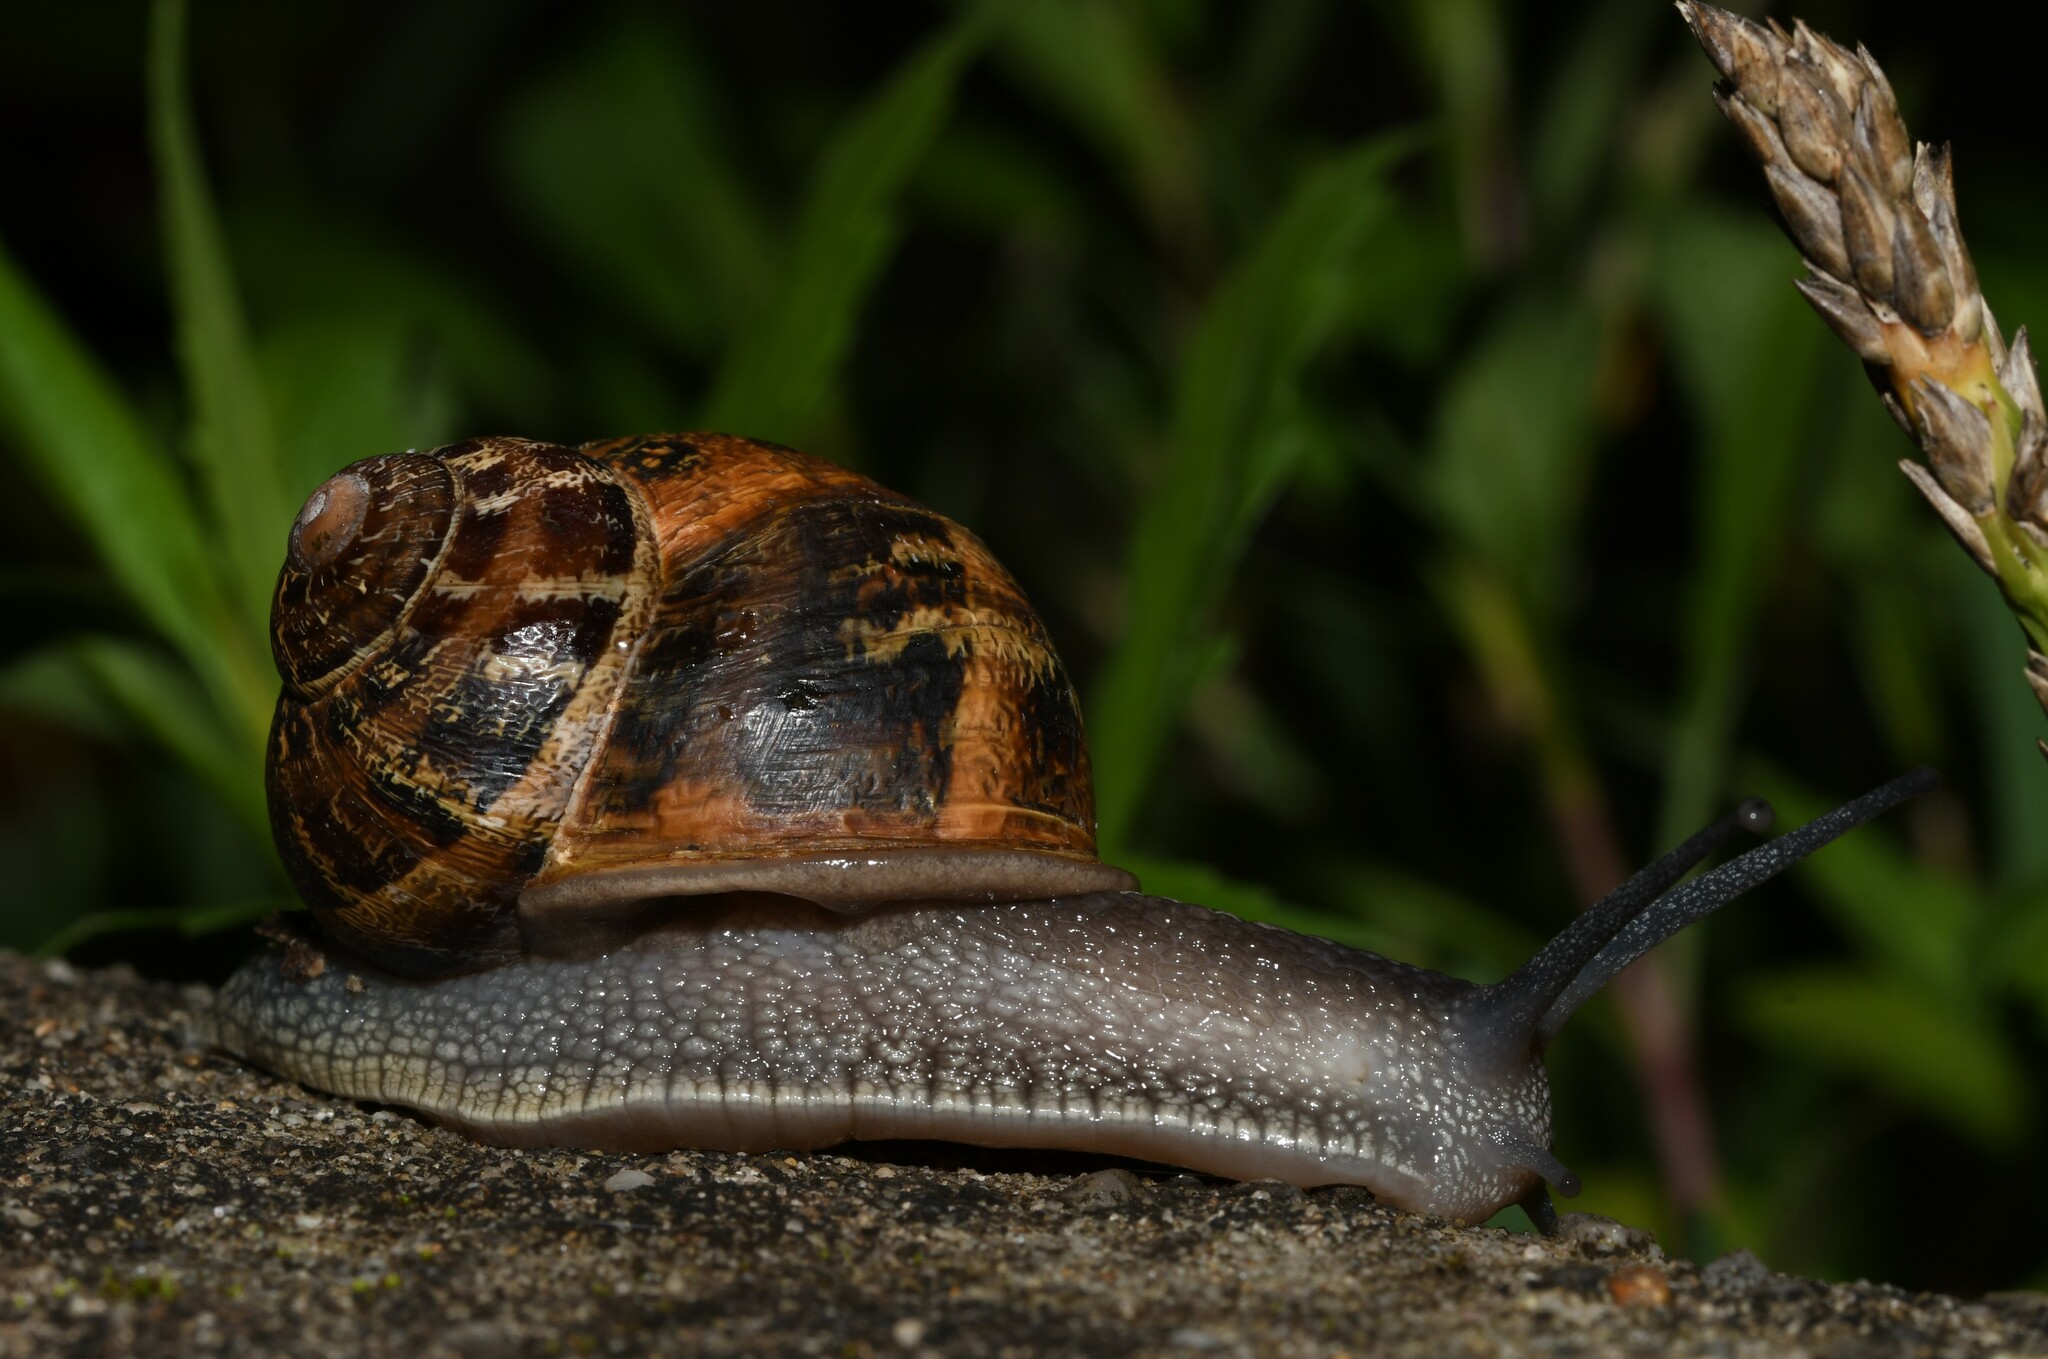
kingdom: Animalia
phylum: Mollusca
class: Gastropoda
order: Stylommatophora
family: Helicidae
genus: Cornu
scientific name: Cornu aspersum
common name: Brown garden snail
